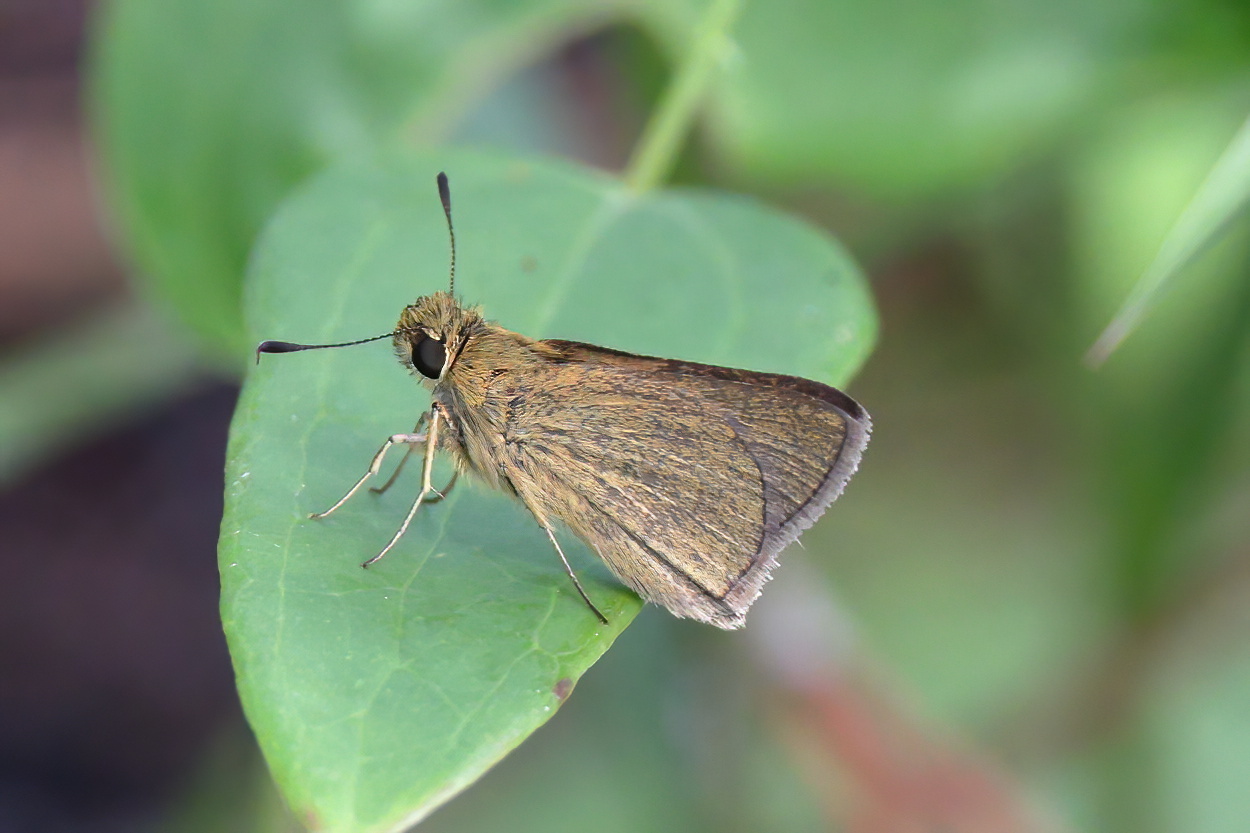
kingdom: Animalia
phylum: Arthropoda
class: Insecta
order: Lepidoptera
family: Hesperiidae
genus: Nastra
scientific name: Nastra lherminier
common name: Swarthy skipper
